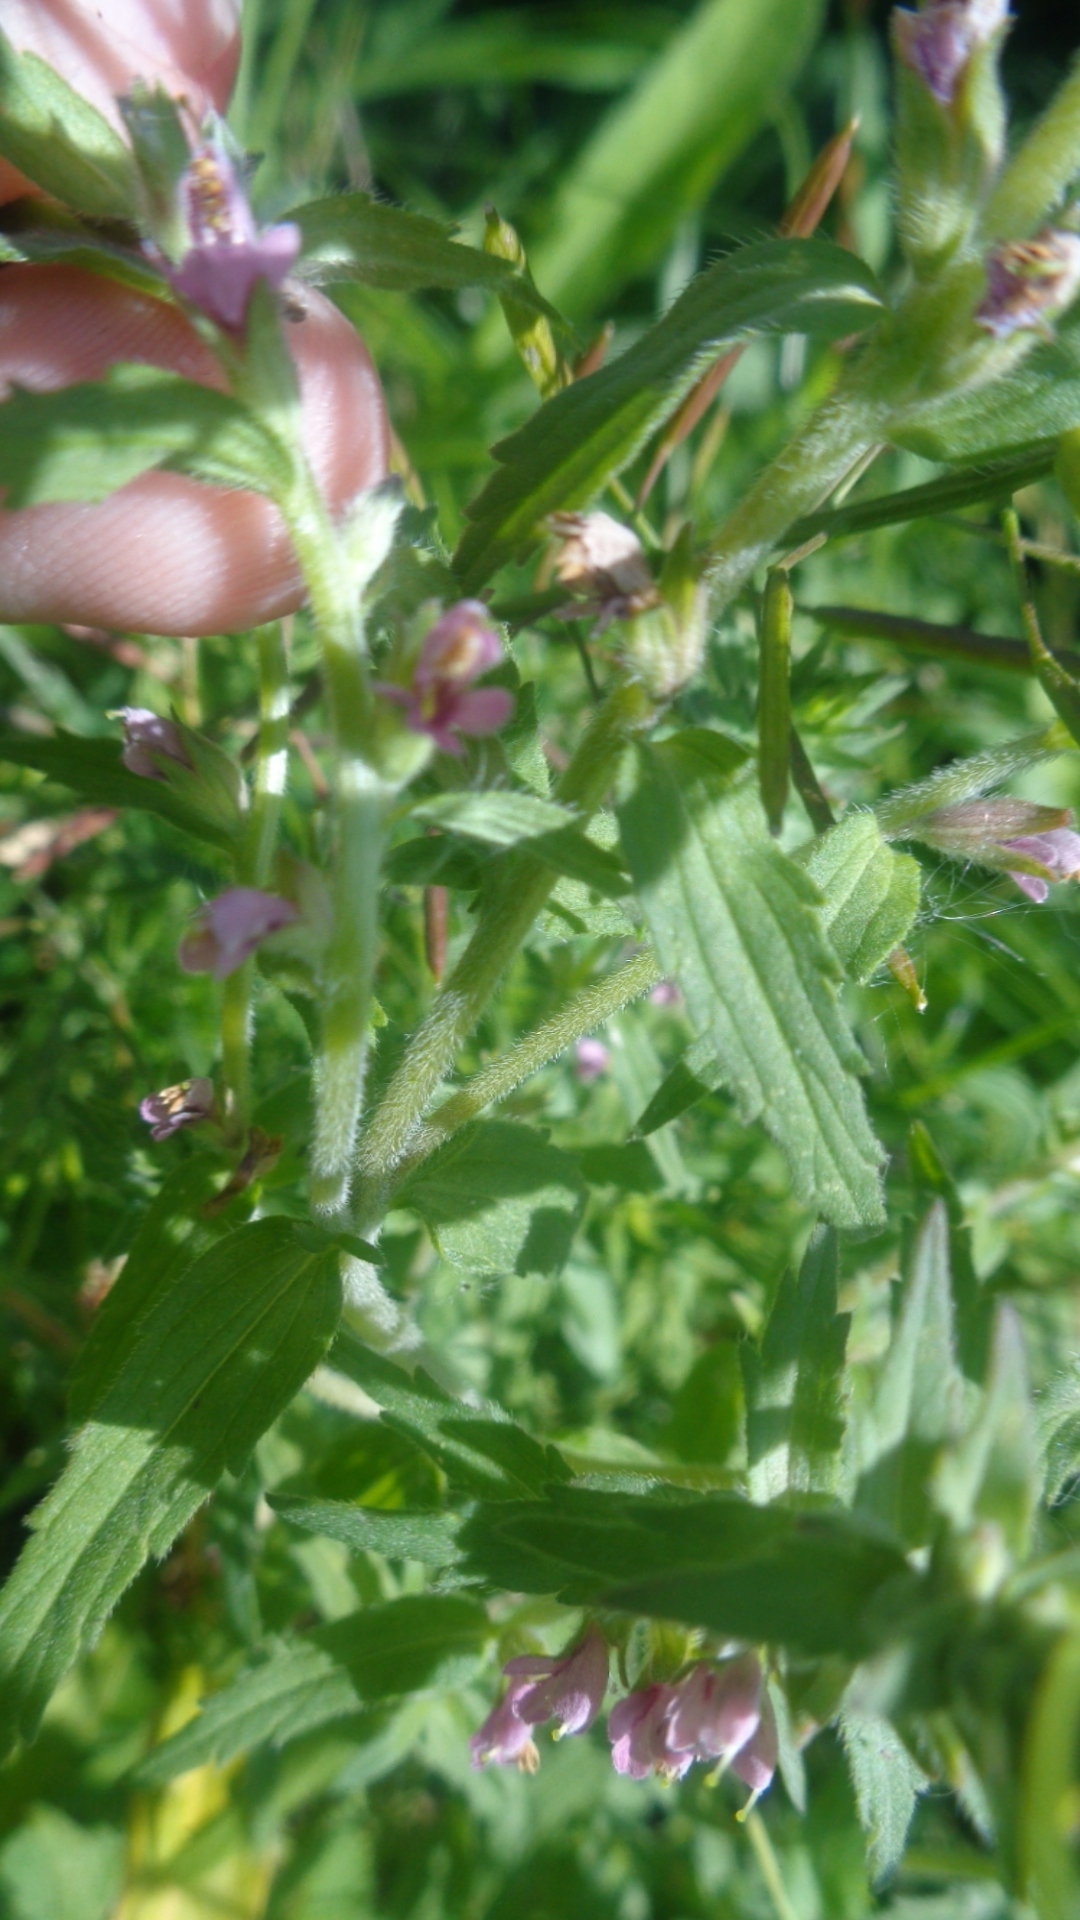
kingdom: Plantae
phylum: Tracheophyta
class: Magnoliopsida
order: Lamiales
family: Orobanchaceae
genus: Odontites
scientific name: Odontites vulgaris
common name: Broomrape
